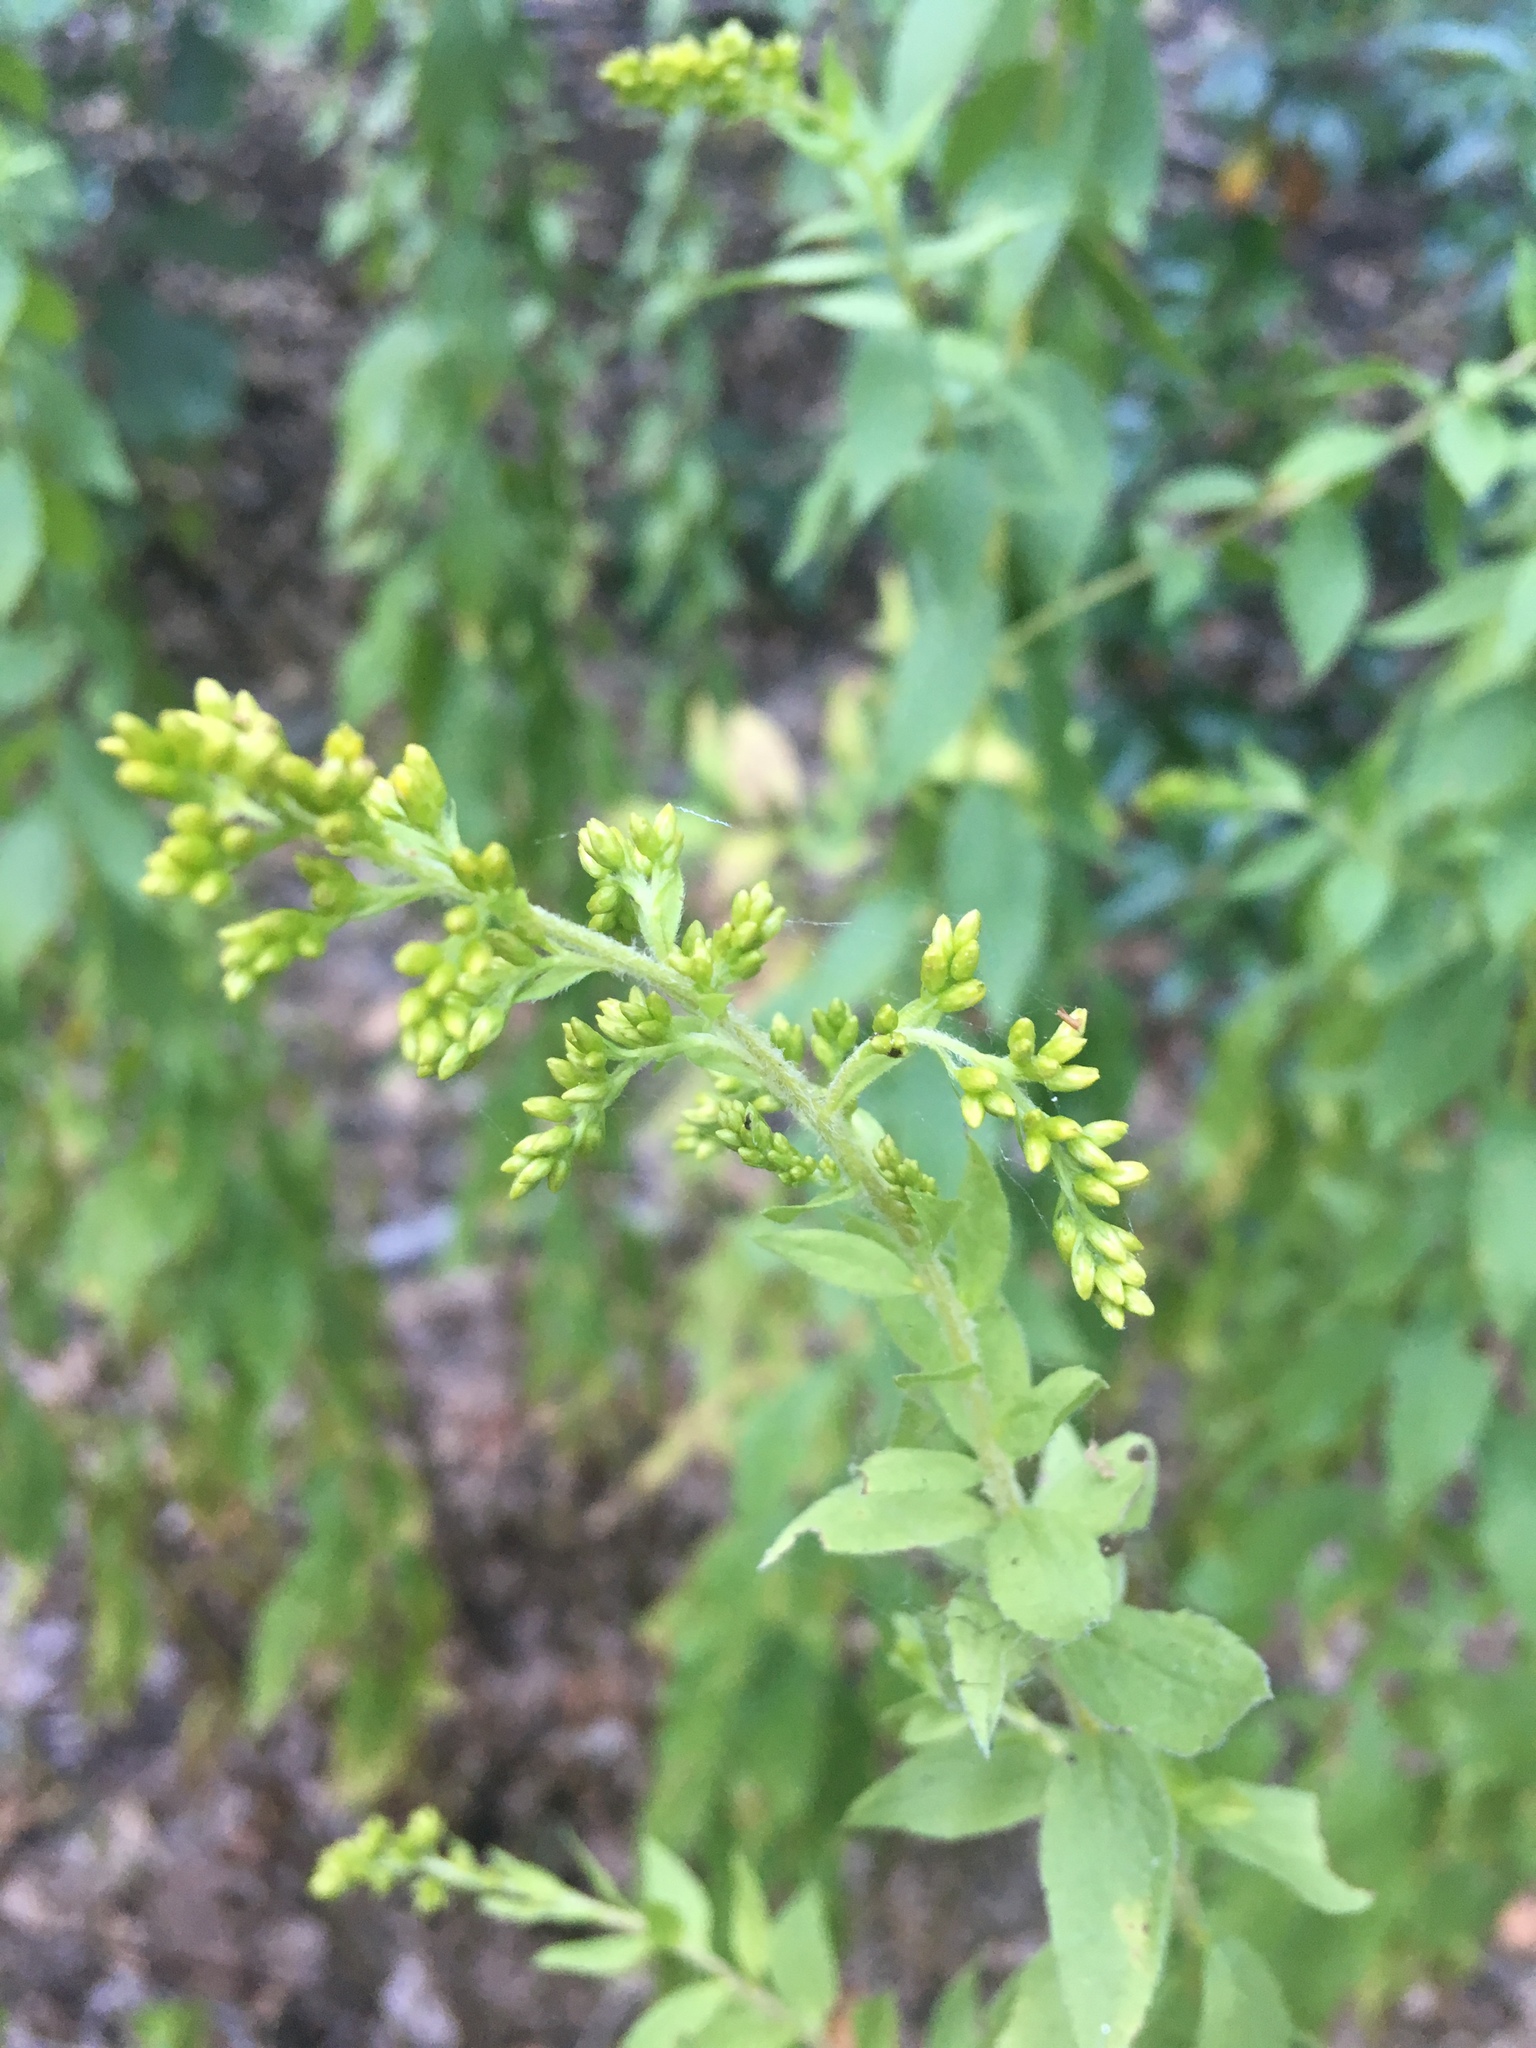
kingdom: Plantae
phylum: Tracheophyta
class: Magnoliopsida
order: Asterales
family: Asteraceae
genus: Solidago
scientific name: Solidago rugosa
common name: Rough-stemmed goldenrod
